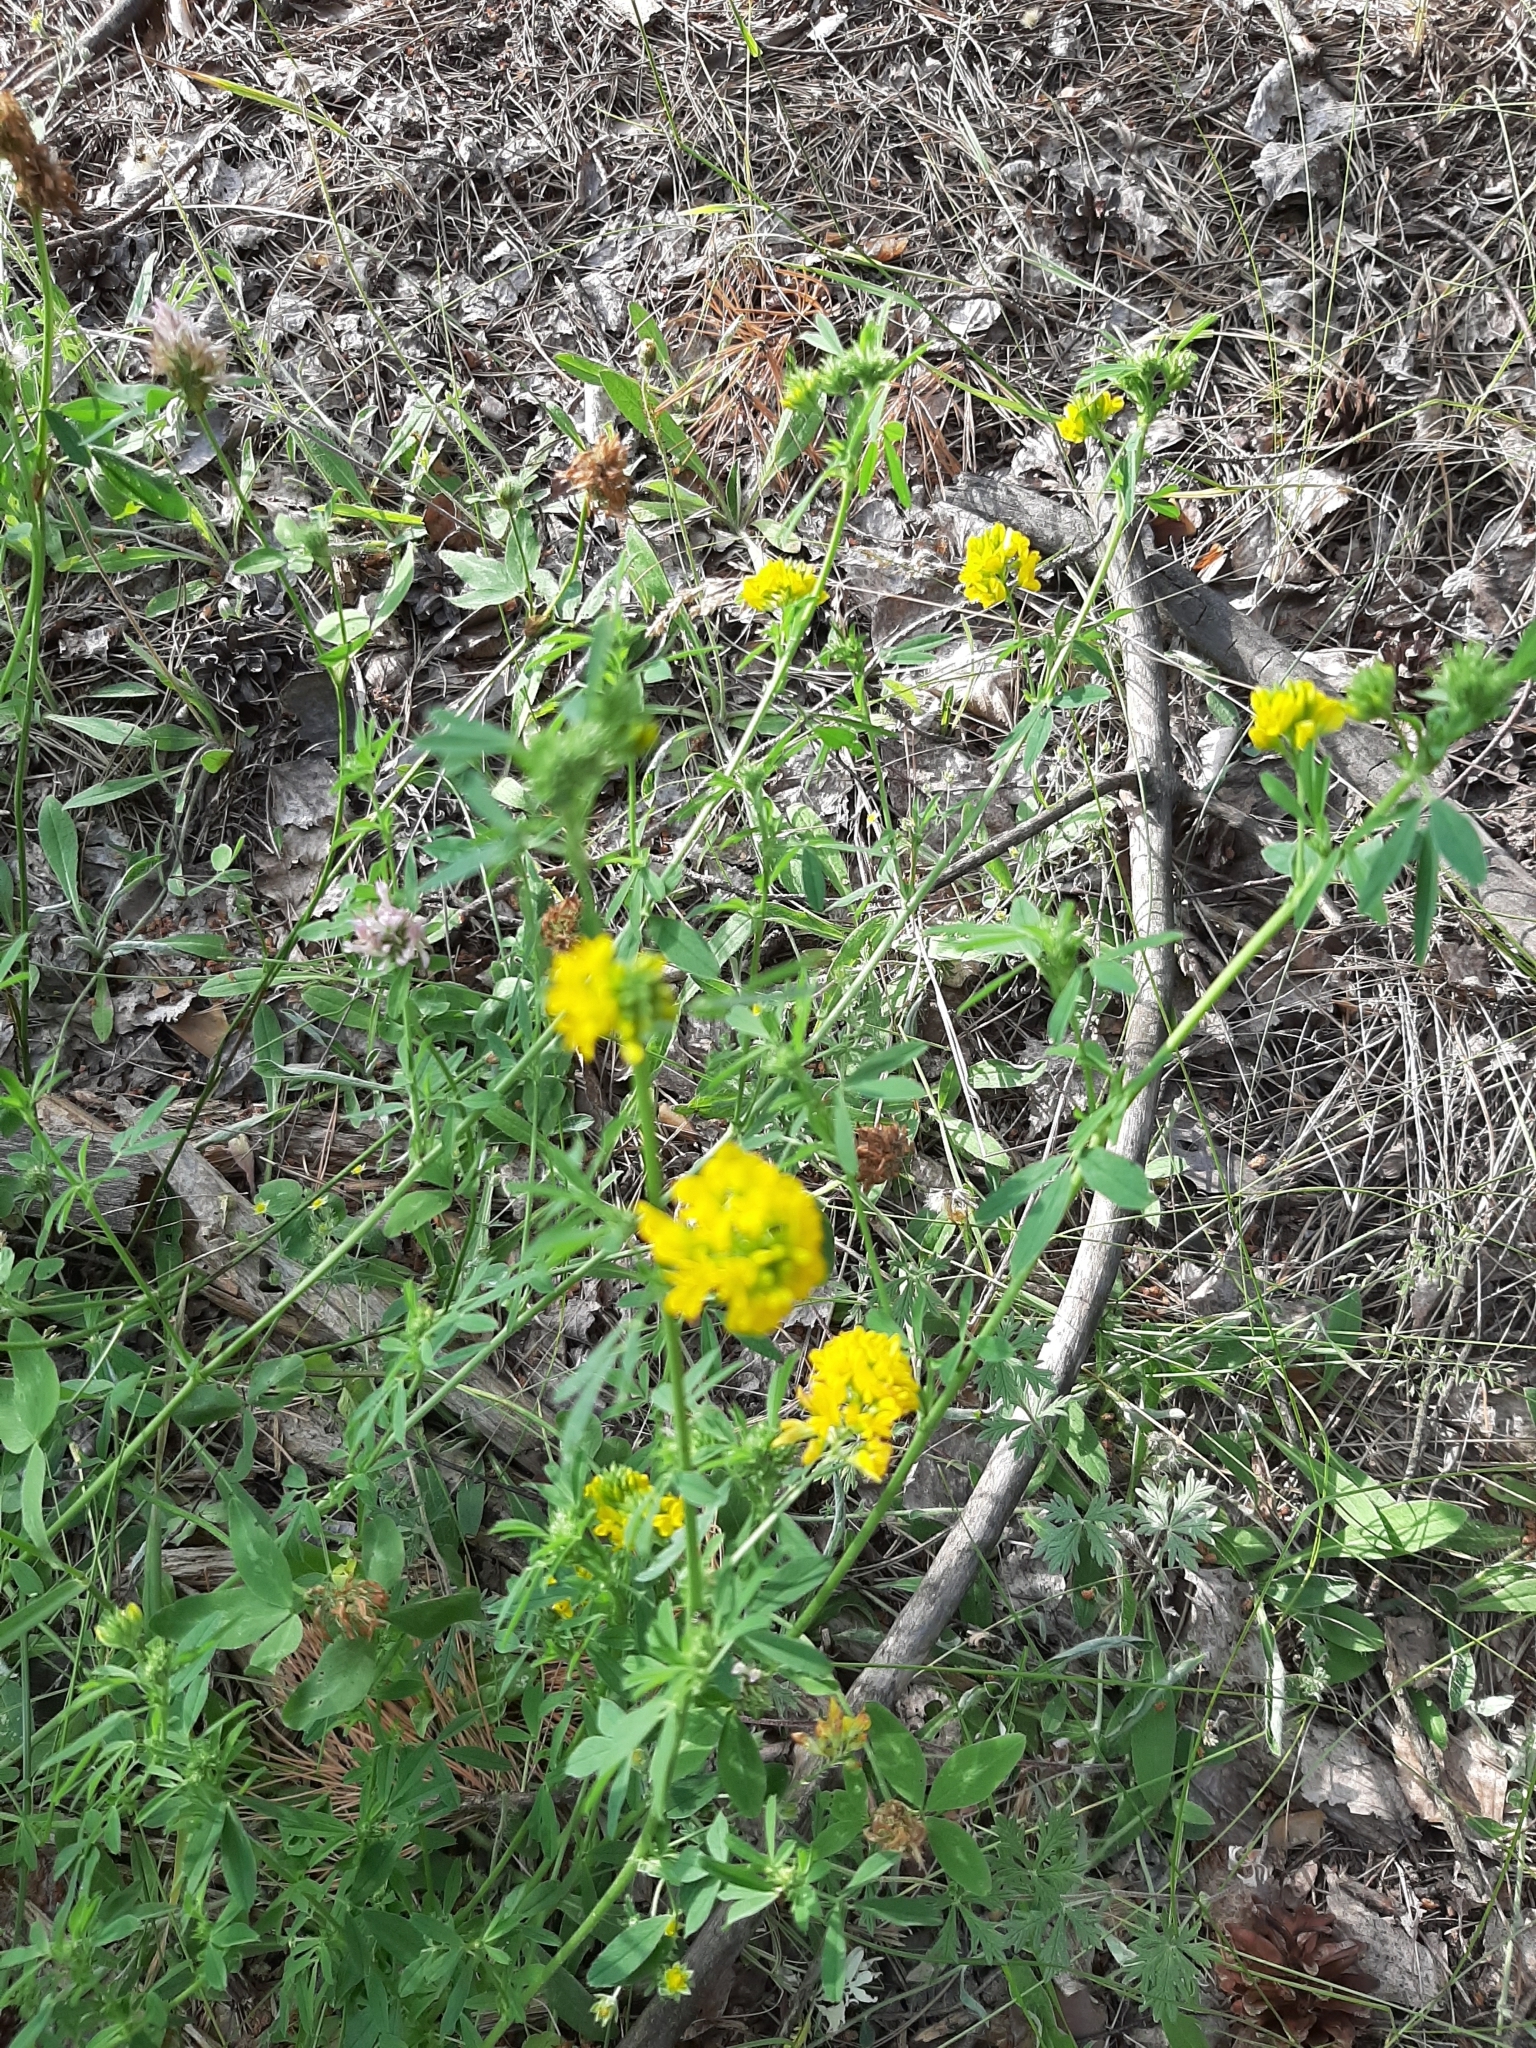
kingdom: Plantae
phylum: Tracheophyta
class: Magnoliopsida
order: Fabales
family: Fabaceae
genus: Medicago
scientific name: Medicago falcata
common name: Sickle medick
